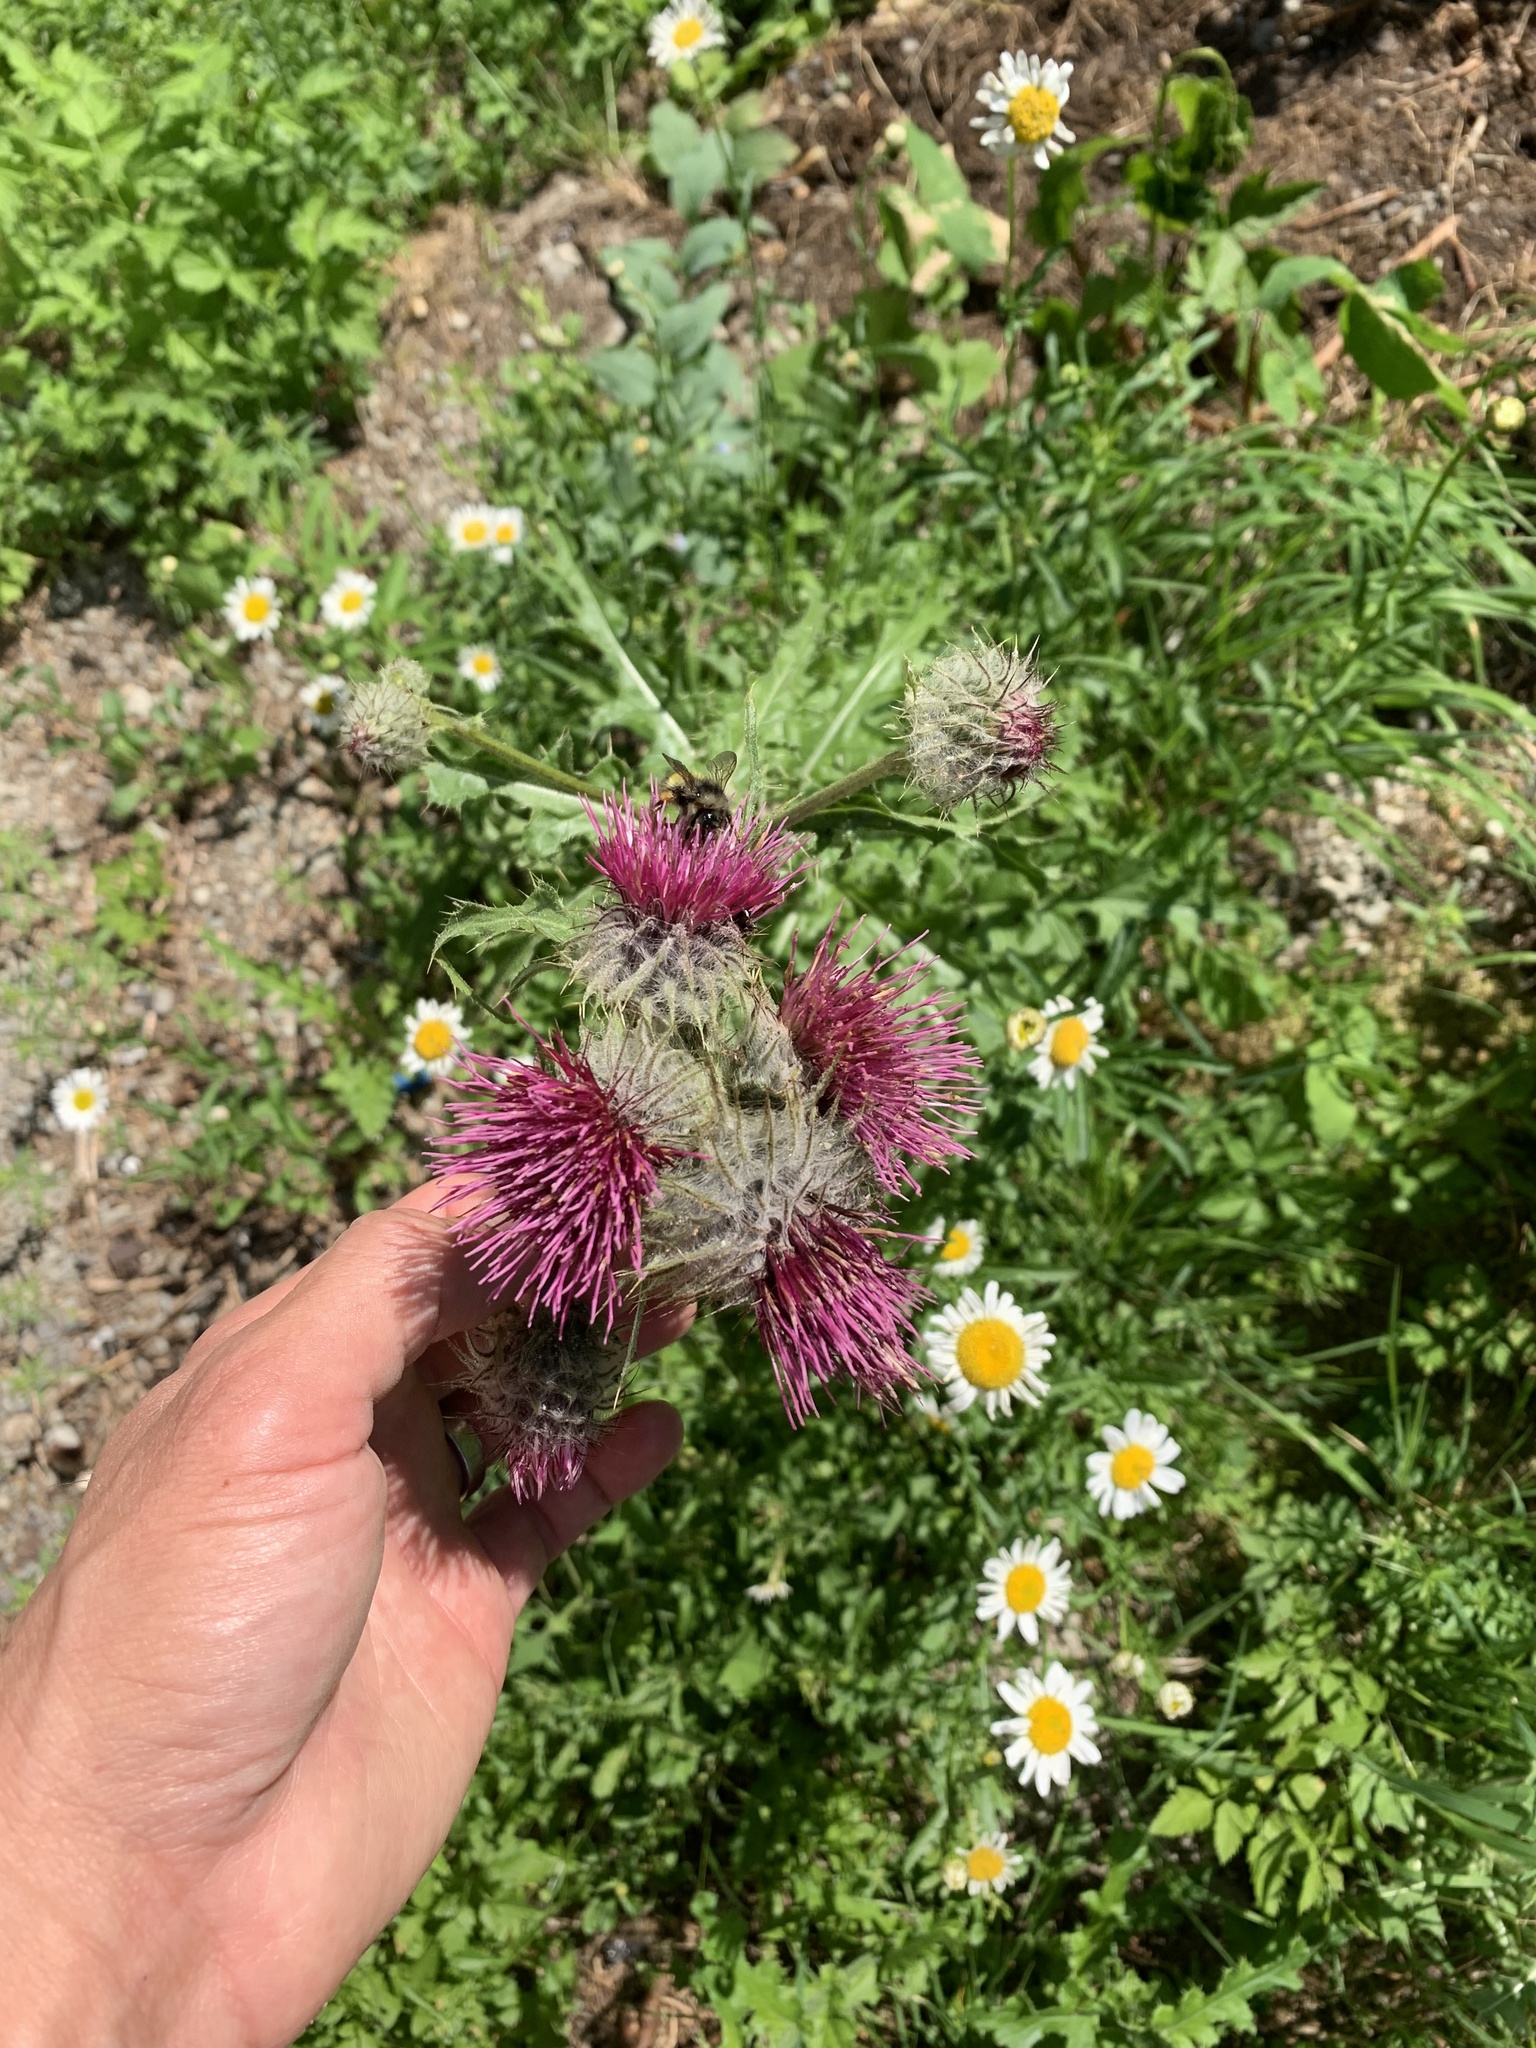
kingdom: Plantae
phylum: Tracheophyta
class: Magnoliopsida
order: Asterales
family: Asteraceae
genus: Cirsium
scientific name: Cirsium edule
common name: Indian thistle
